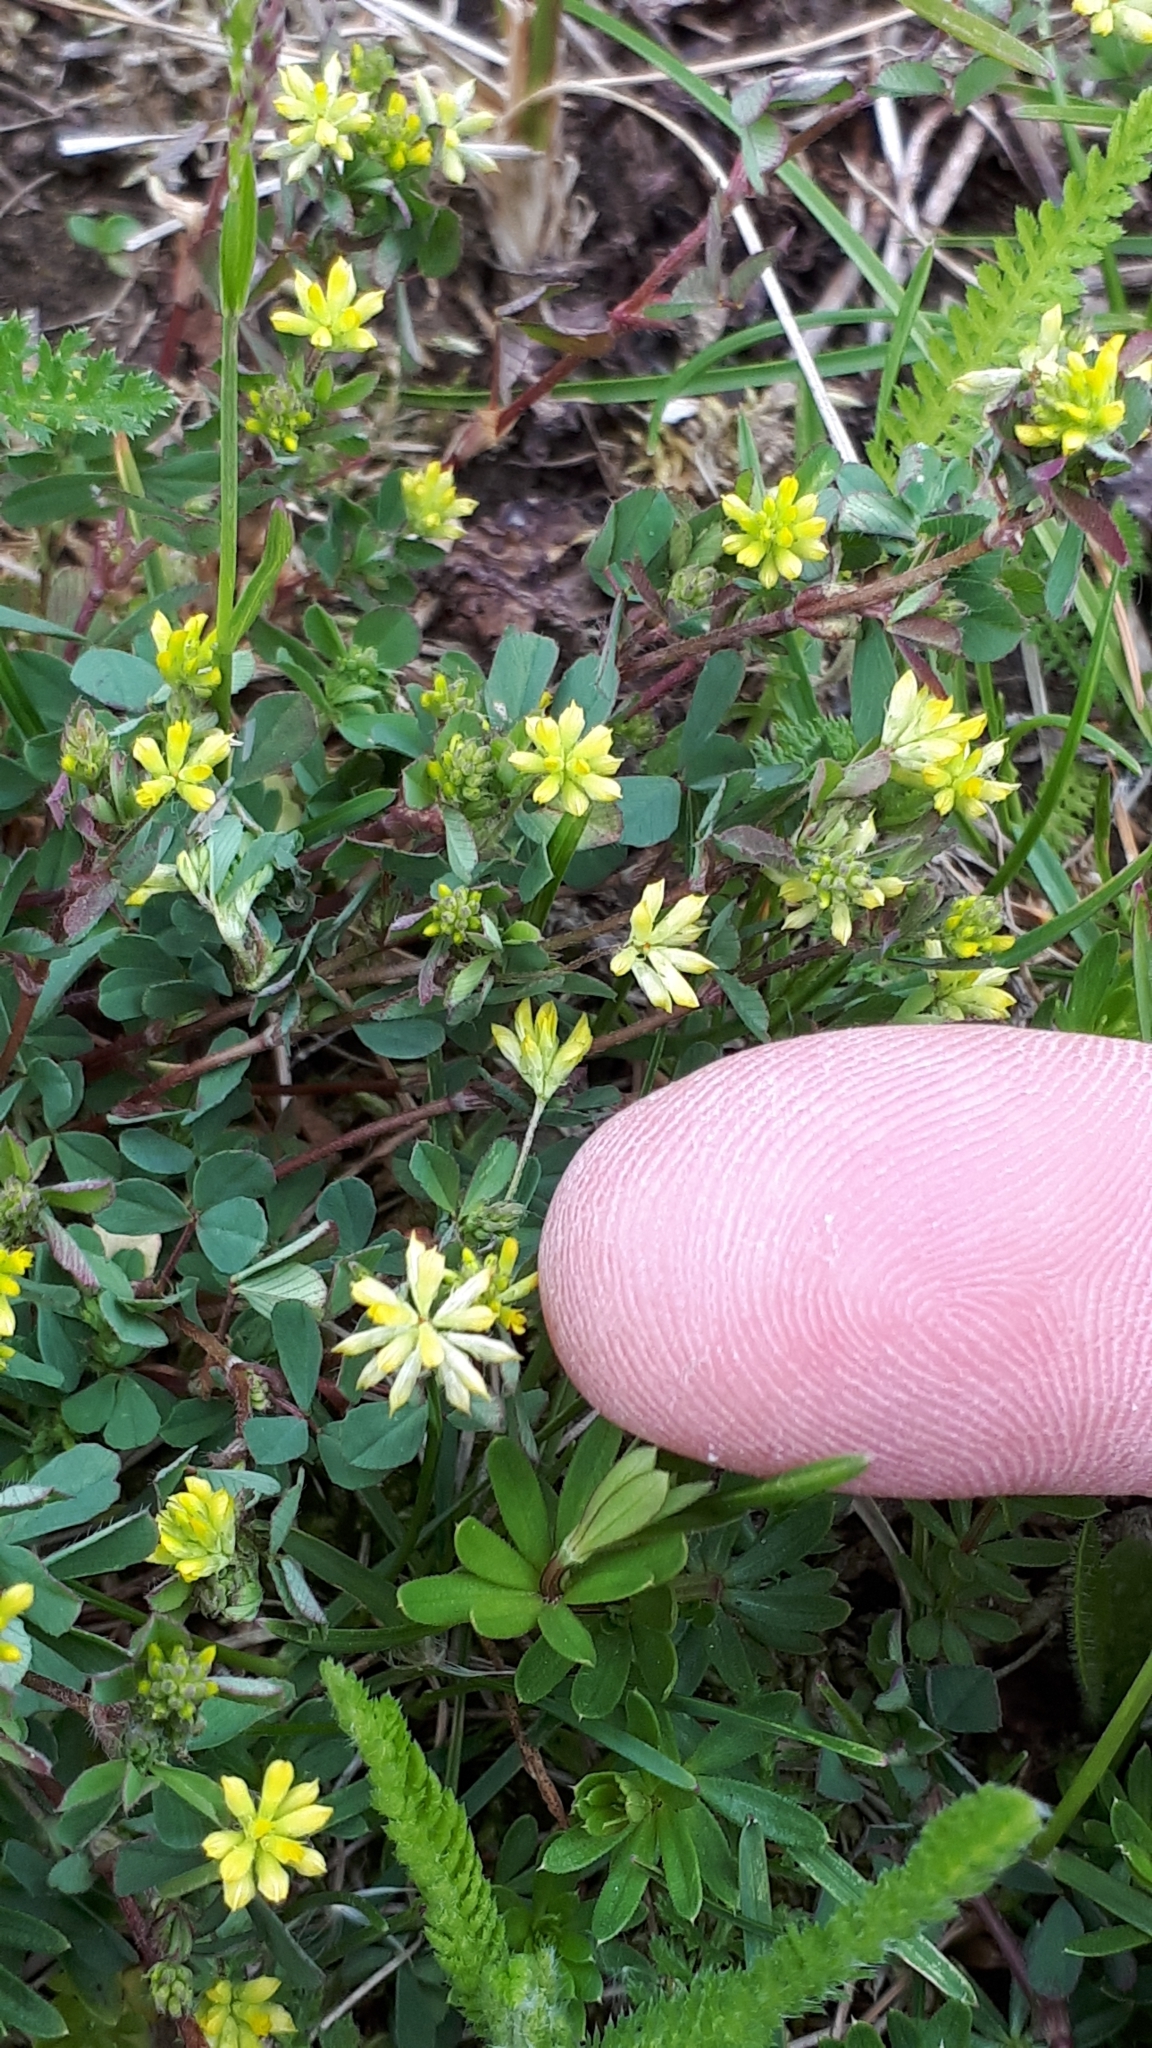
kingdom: Plantae
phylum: Tracheophyta
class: Magnoliopsida
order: Fabales
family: Fabaceae
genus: Trifolium
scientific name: Trifolium dubium
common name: Suckling clover
